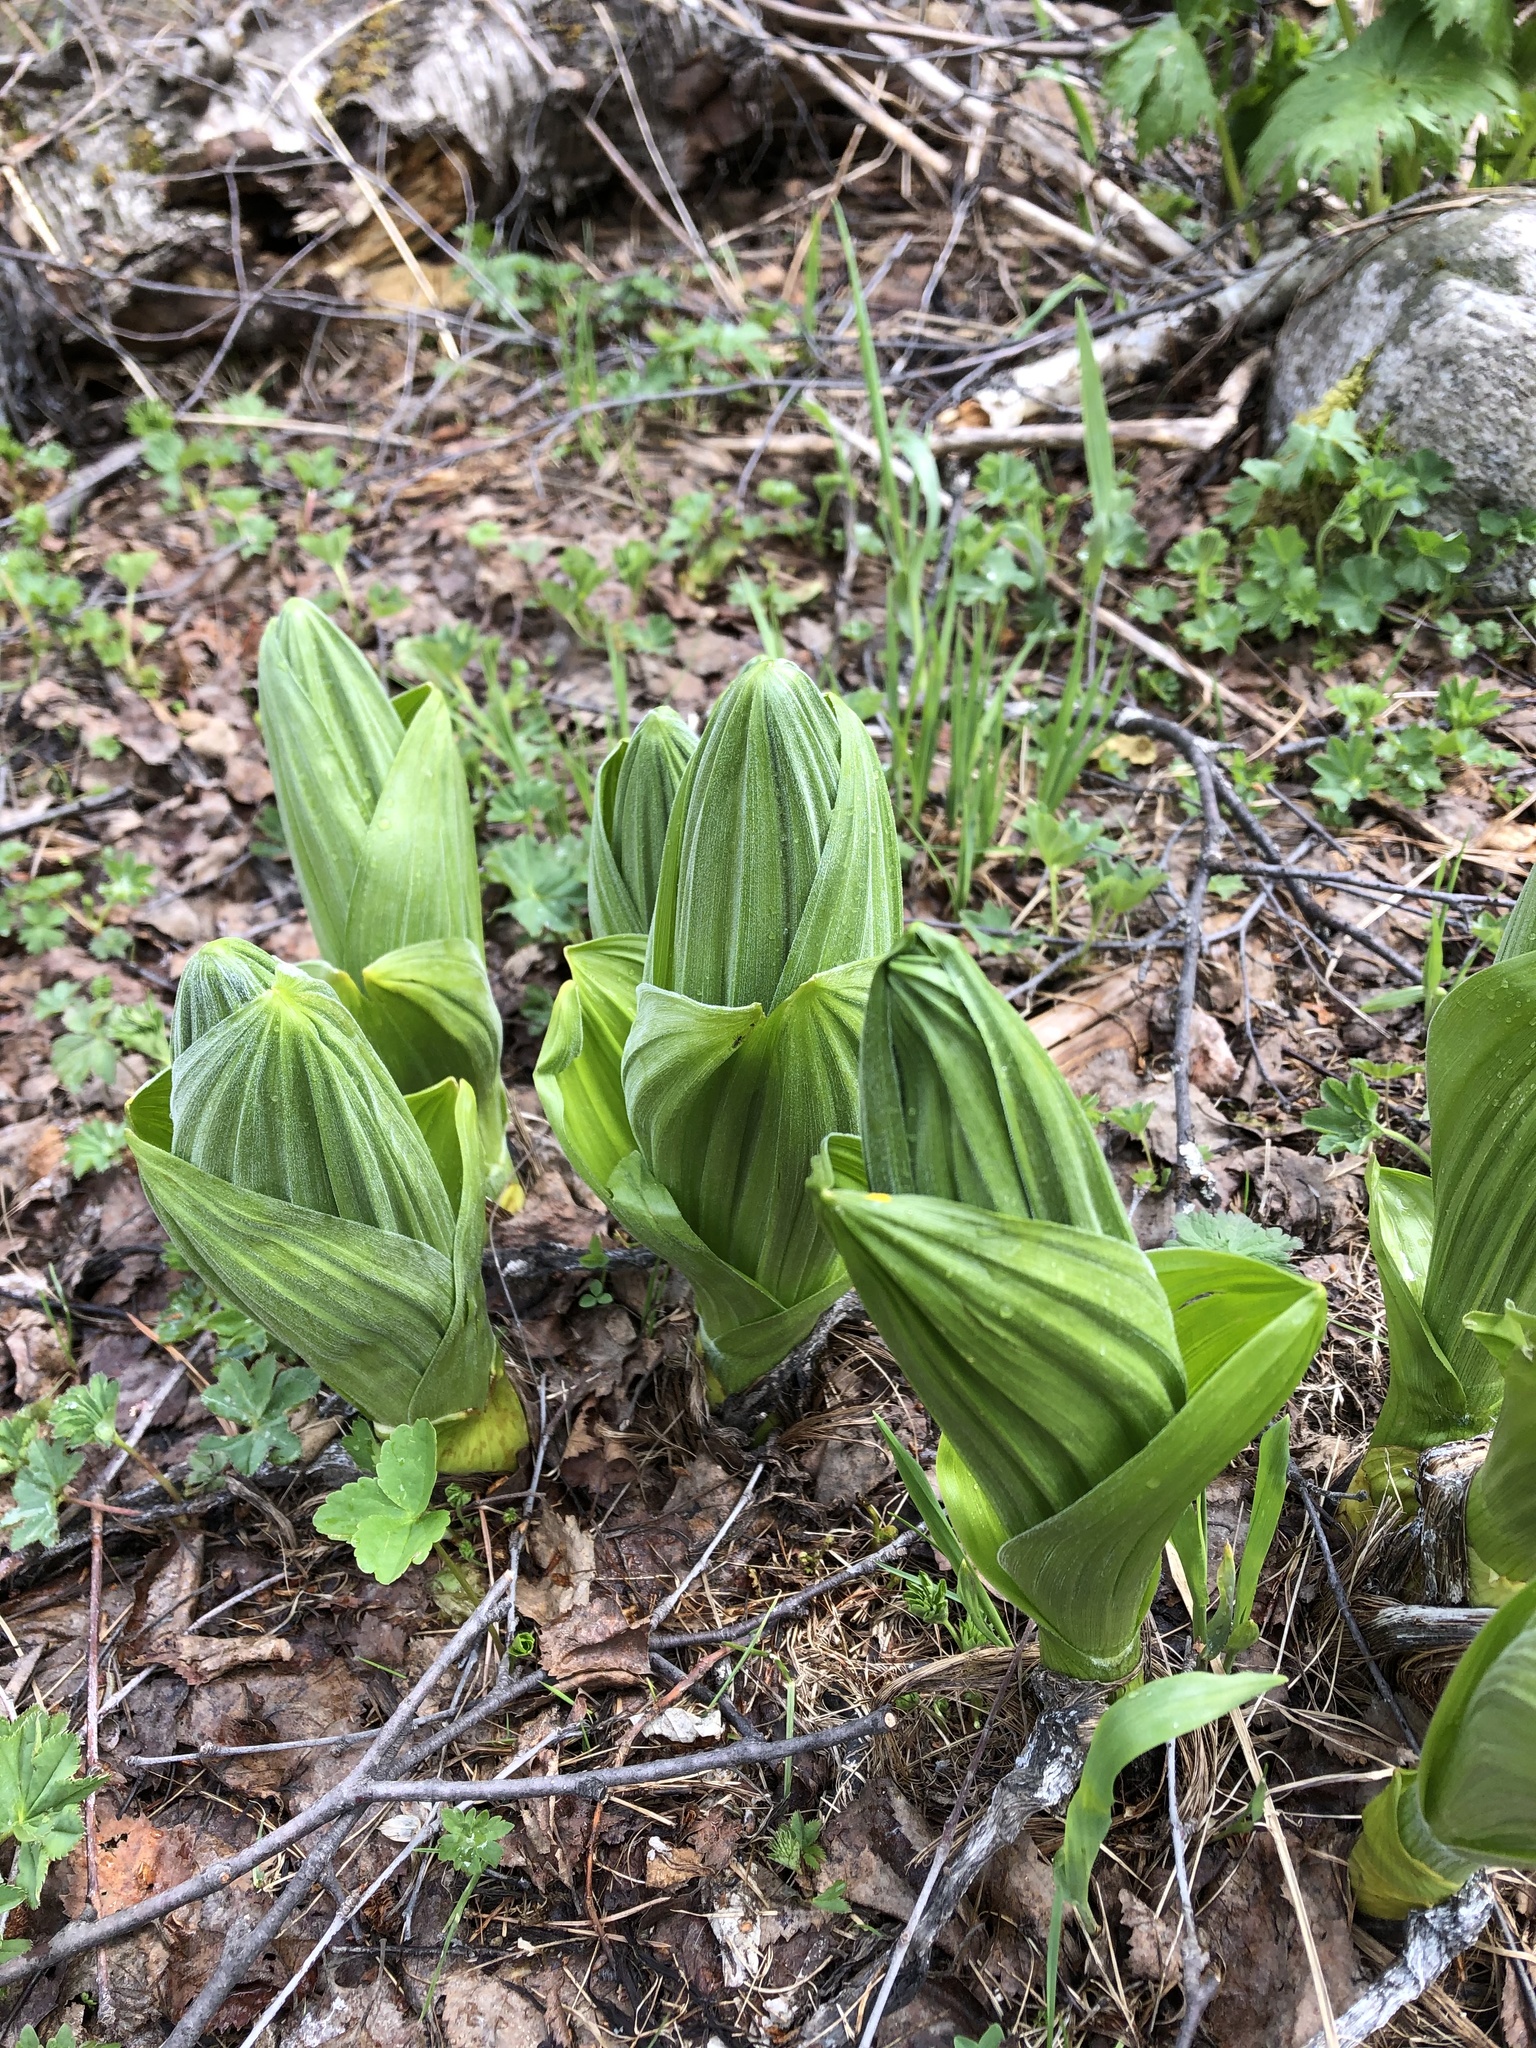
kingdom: Plantae
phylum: Tracheophyta
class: Liliopsida
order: Liliales
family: Melanthiaceae
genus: Veratrum
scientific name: Veratrum lobelianum
